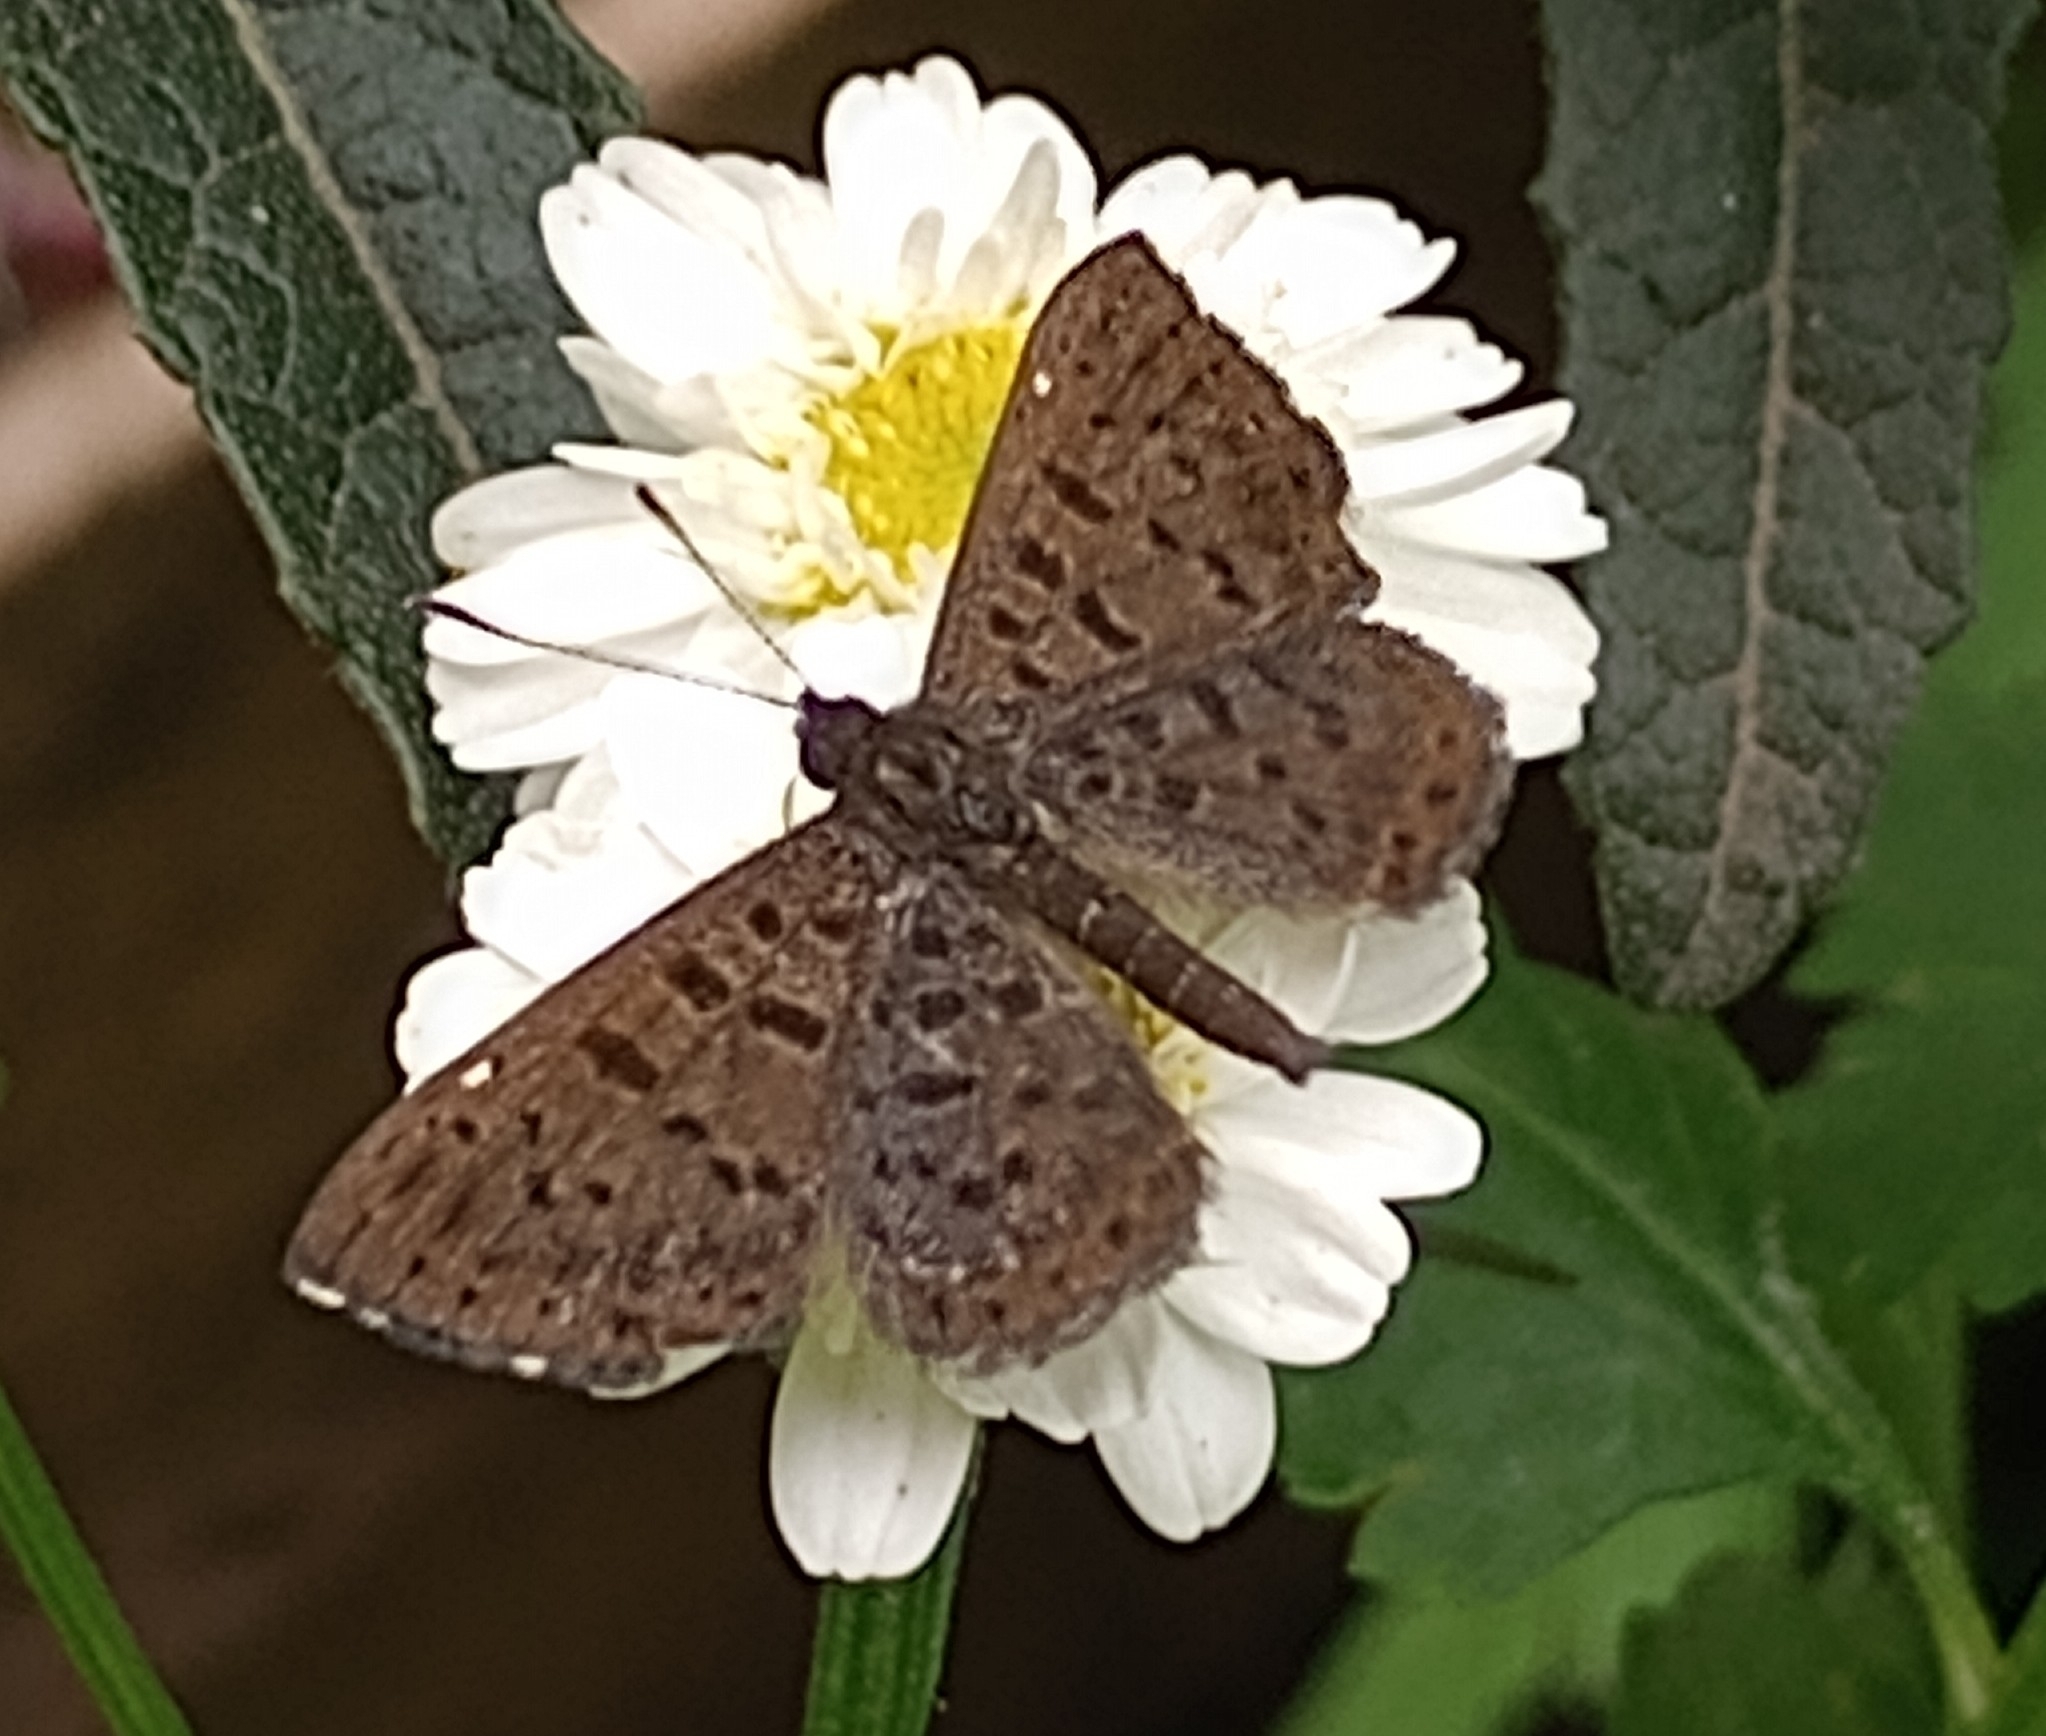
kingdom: Animalia
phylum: Arthropoda
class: Insecta
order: Lepidoptera
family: Riodinidae
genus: Teenie
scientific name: Teenie tinea
